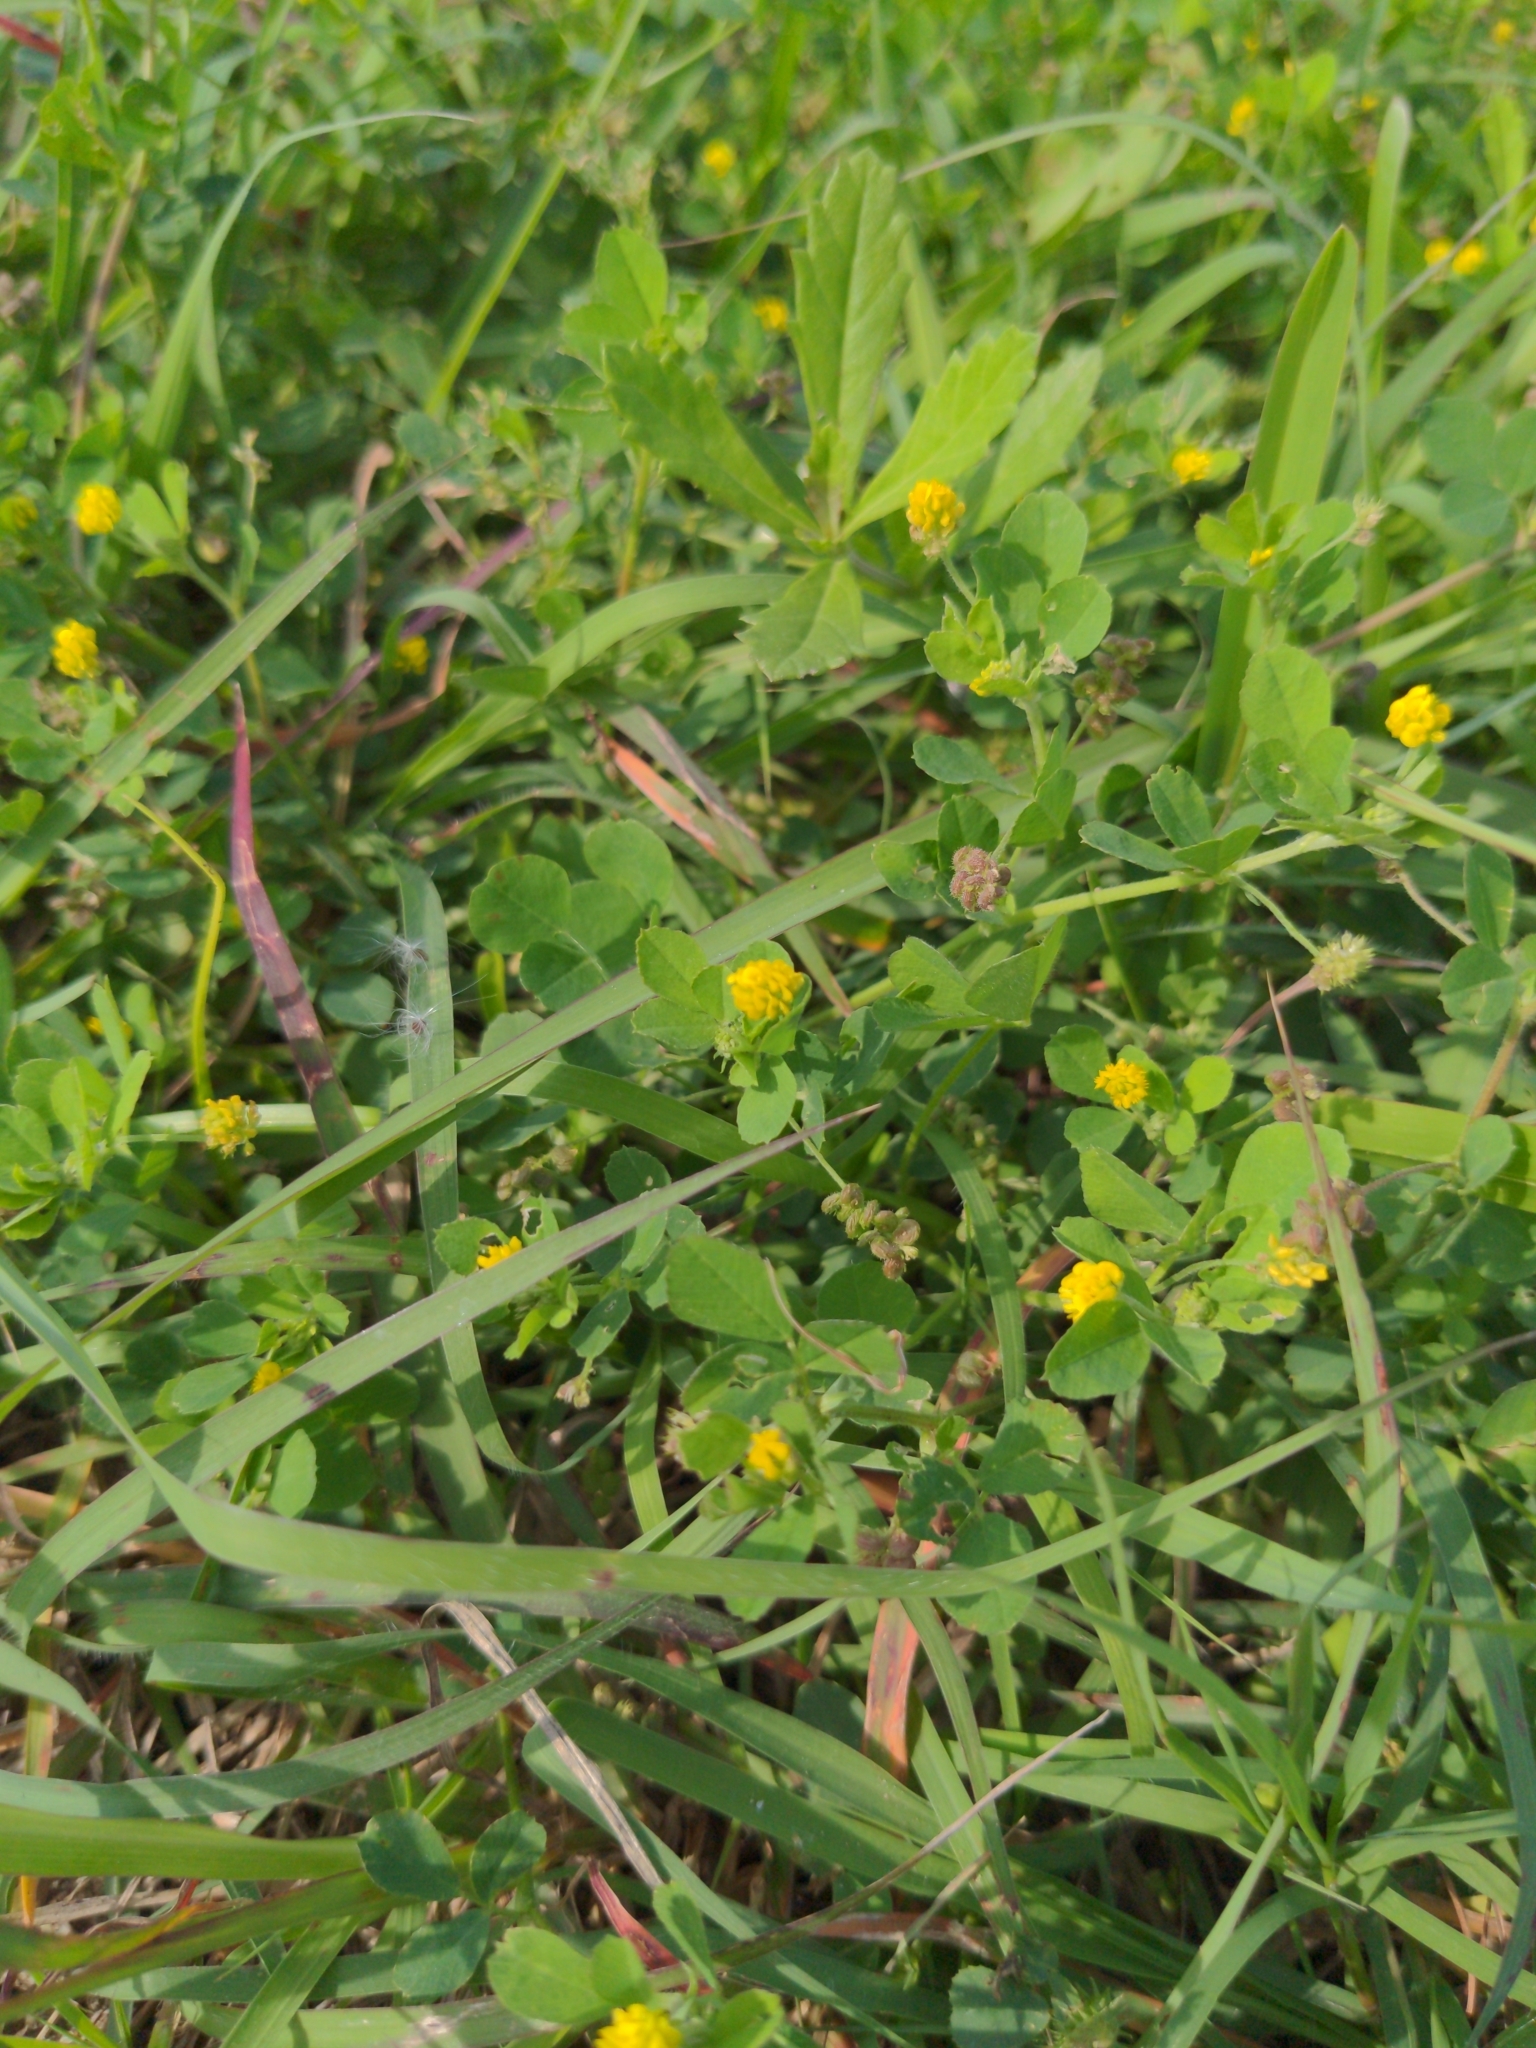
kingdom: Plantae
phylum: Tracheophyta
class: Magnoliopsida
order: Fabales
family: Fabaceae
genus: Medicago
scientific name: Medicago lupulina
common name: Black medick
